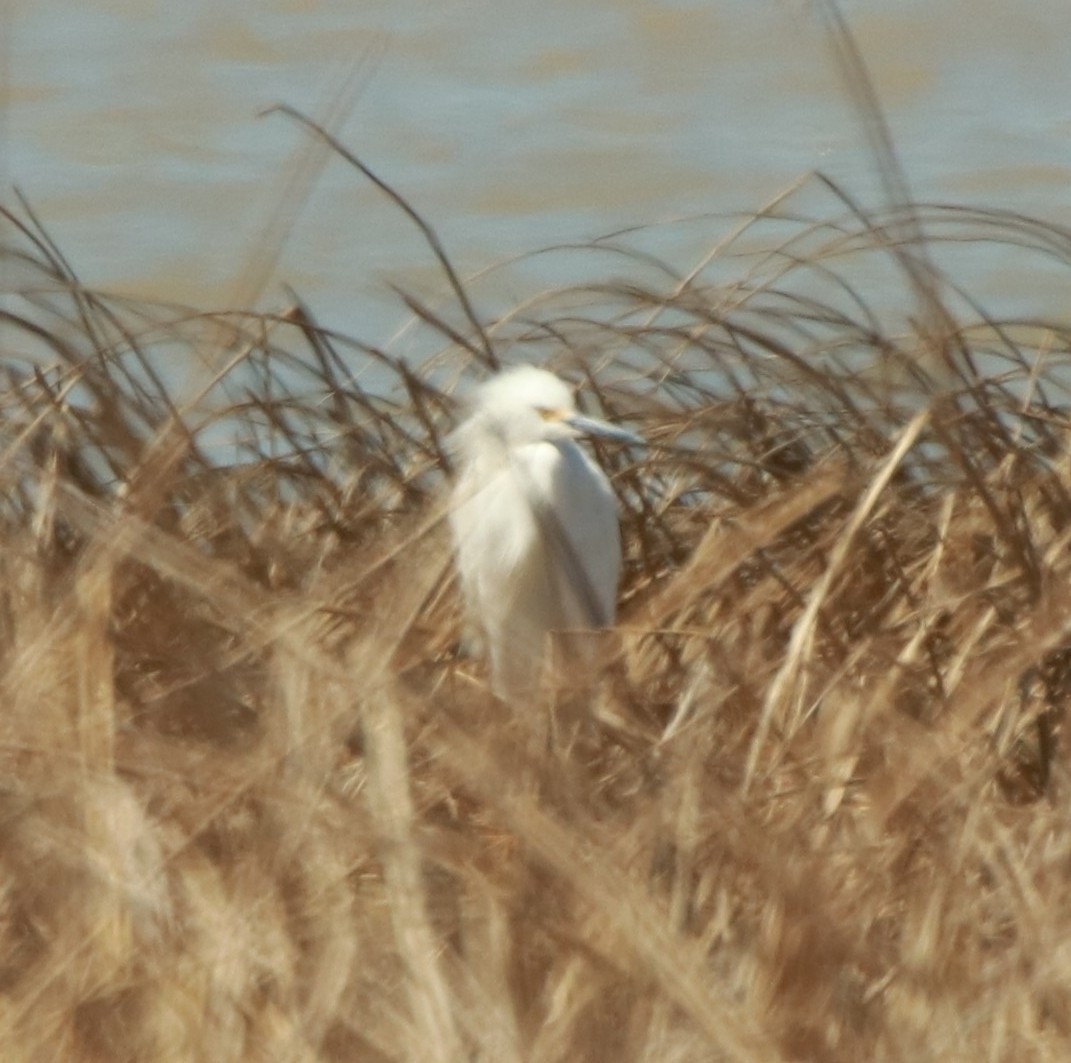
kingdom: Animalia
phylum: Chordata
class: Aves
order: Pelecaniformes
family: Ardeidae
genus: Egretta
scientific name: Egretta thula
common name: Snowy egret
